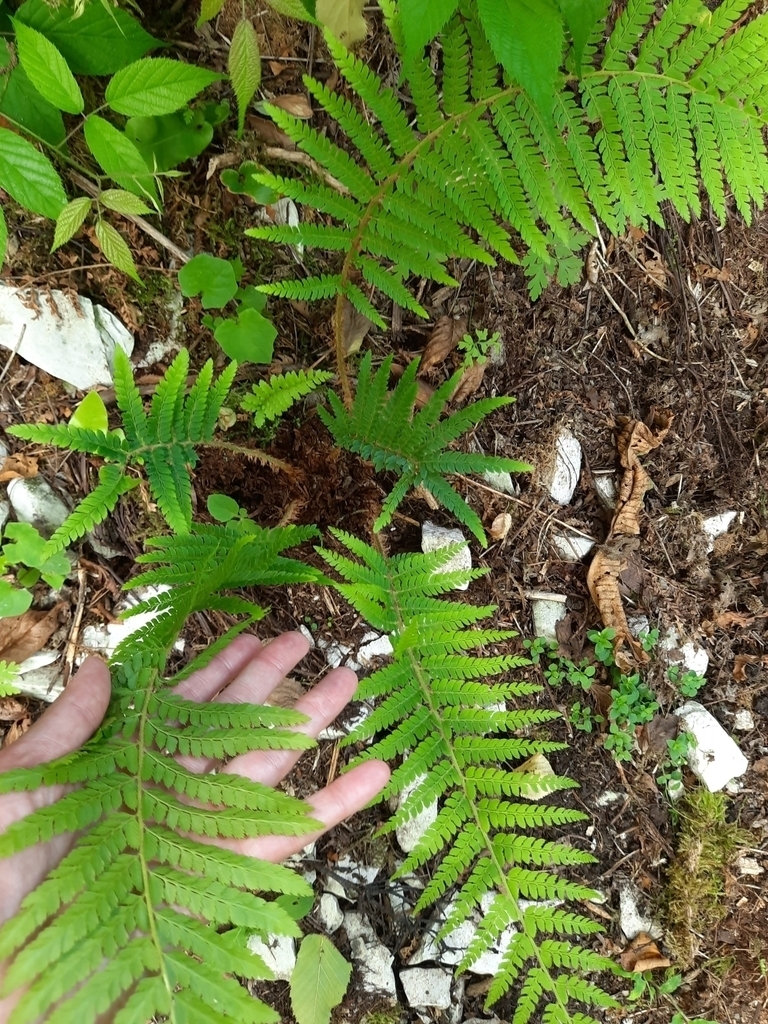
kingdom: Plantae
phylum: Tracheophyta
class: Polypodiopsida
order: Polypodiales
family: Dryopteridaceae
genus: Polystichum
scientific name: Polystichum setiferum
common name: Soft shield-fern
